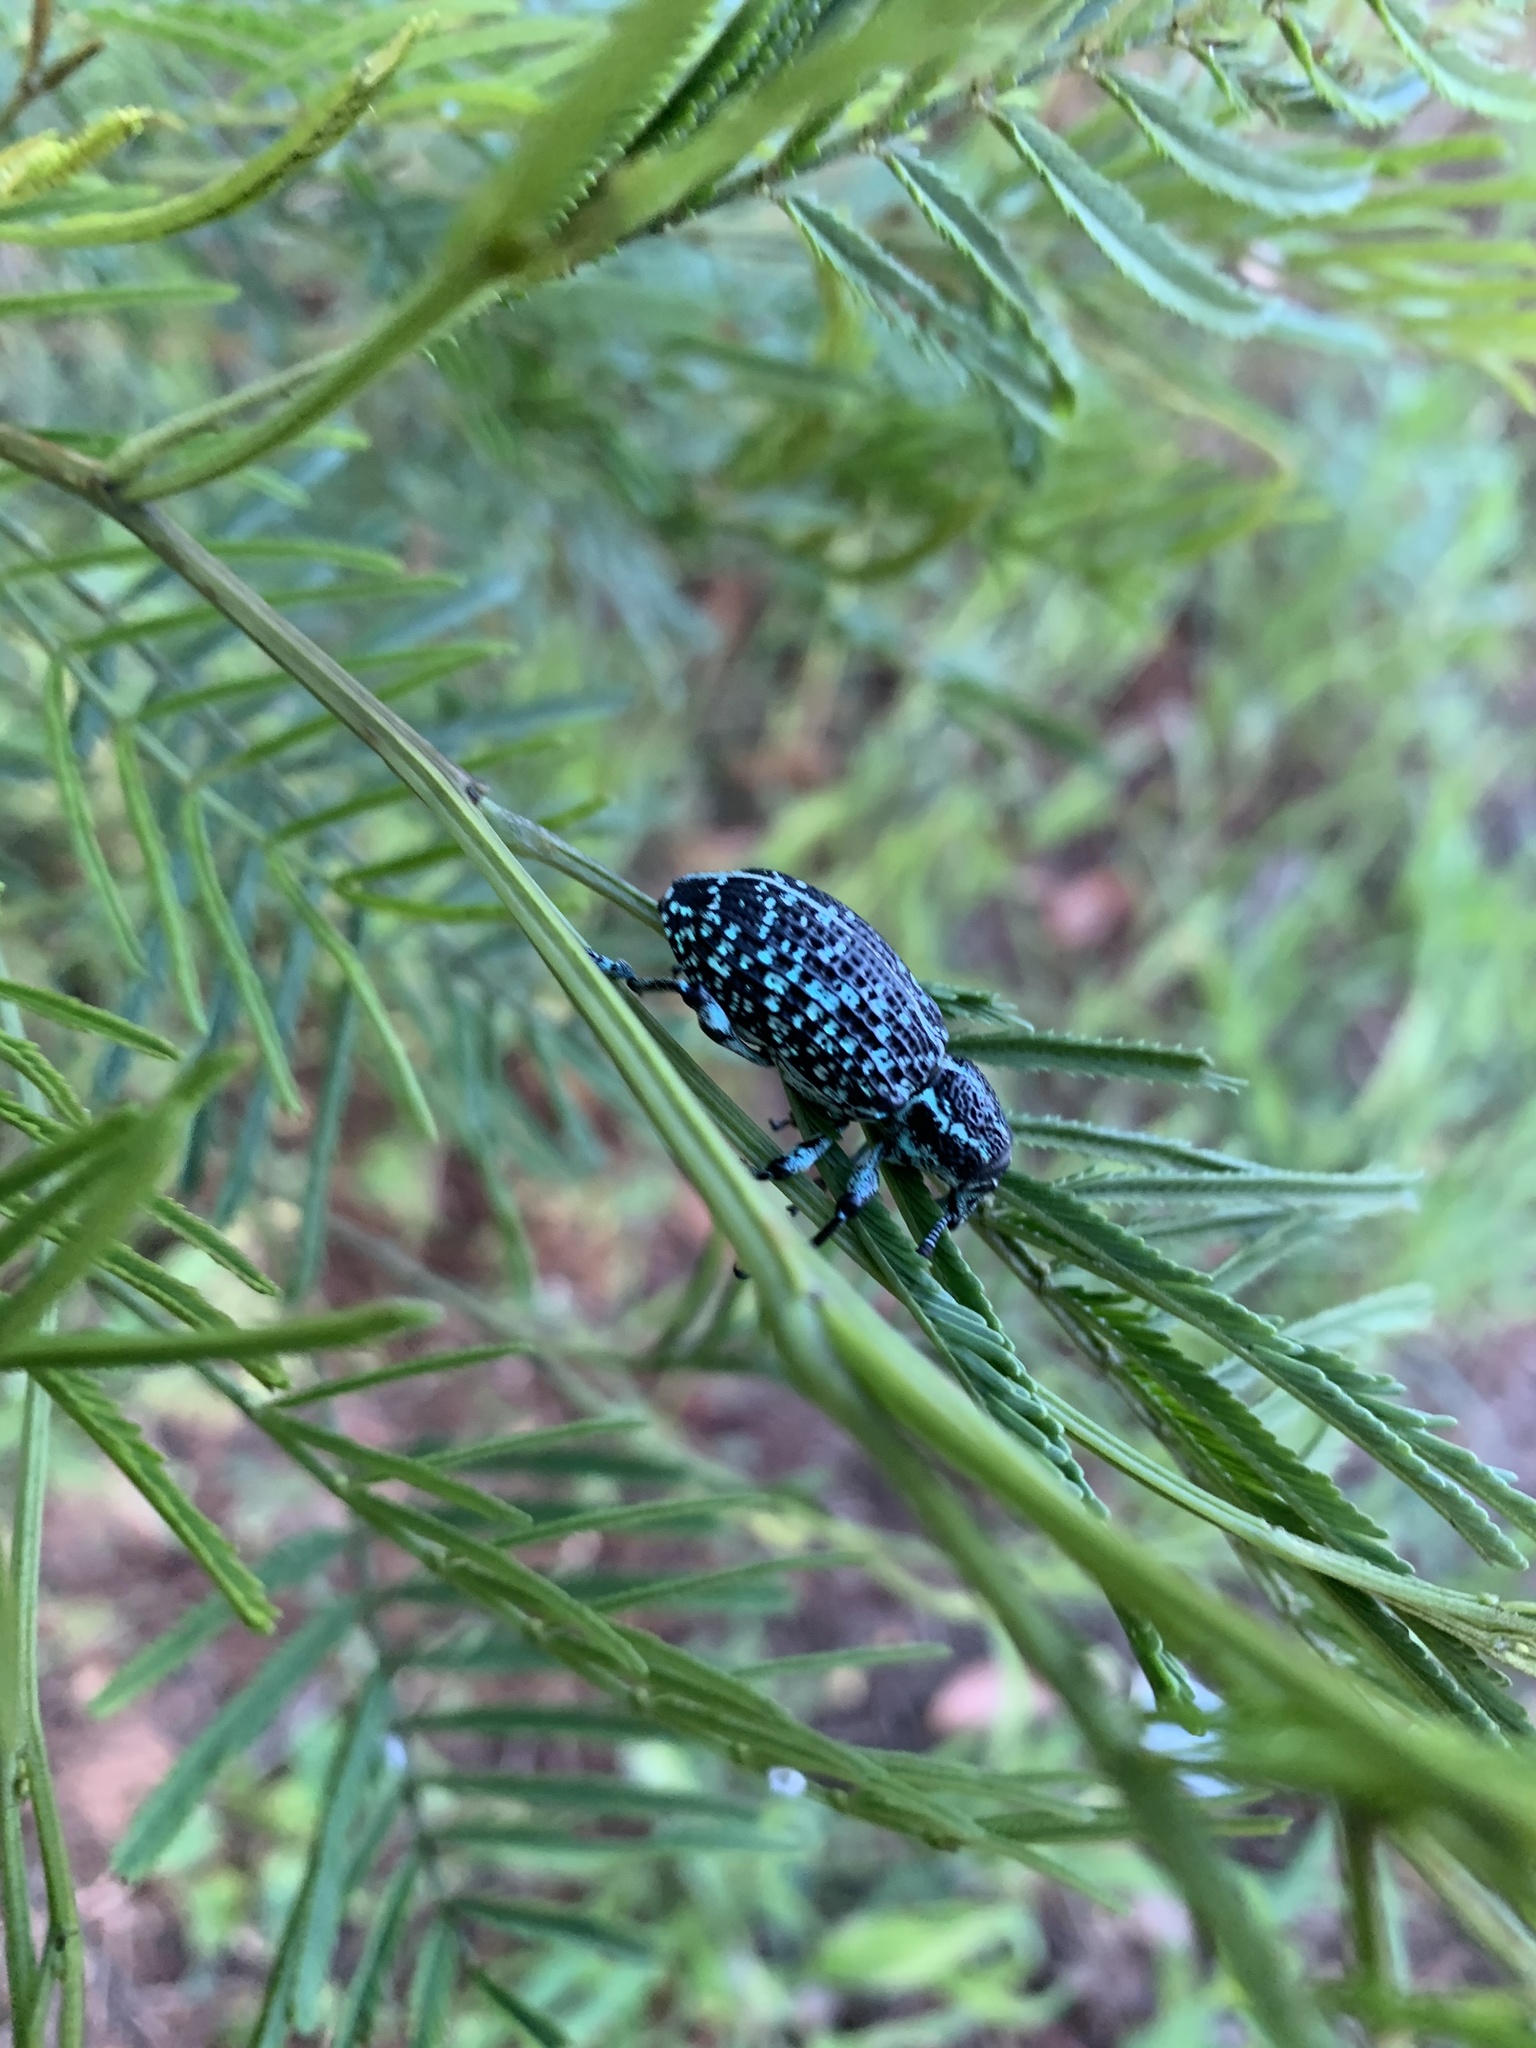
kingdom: Animalia
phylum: Arthropoda
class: Insecta
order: Coleoptera
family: Curculionidae
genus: Chrysolopus
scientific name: Chrysolopus spectabilis
